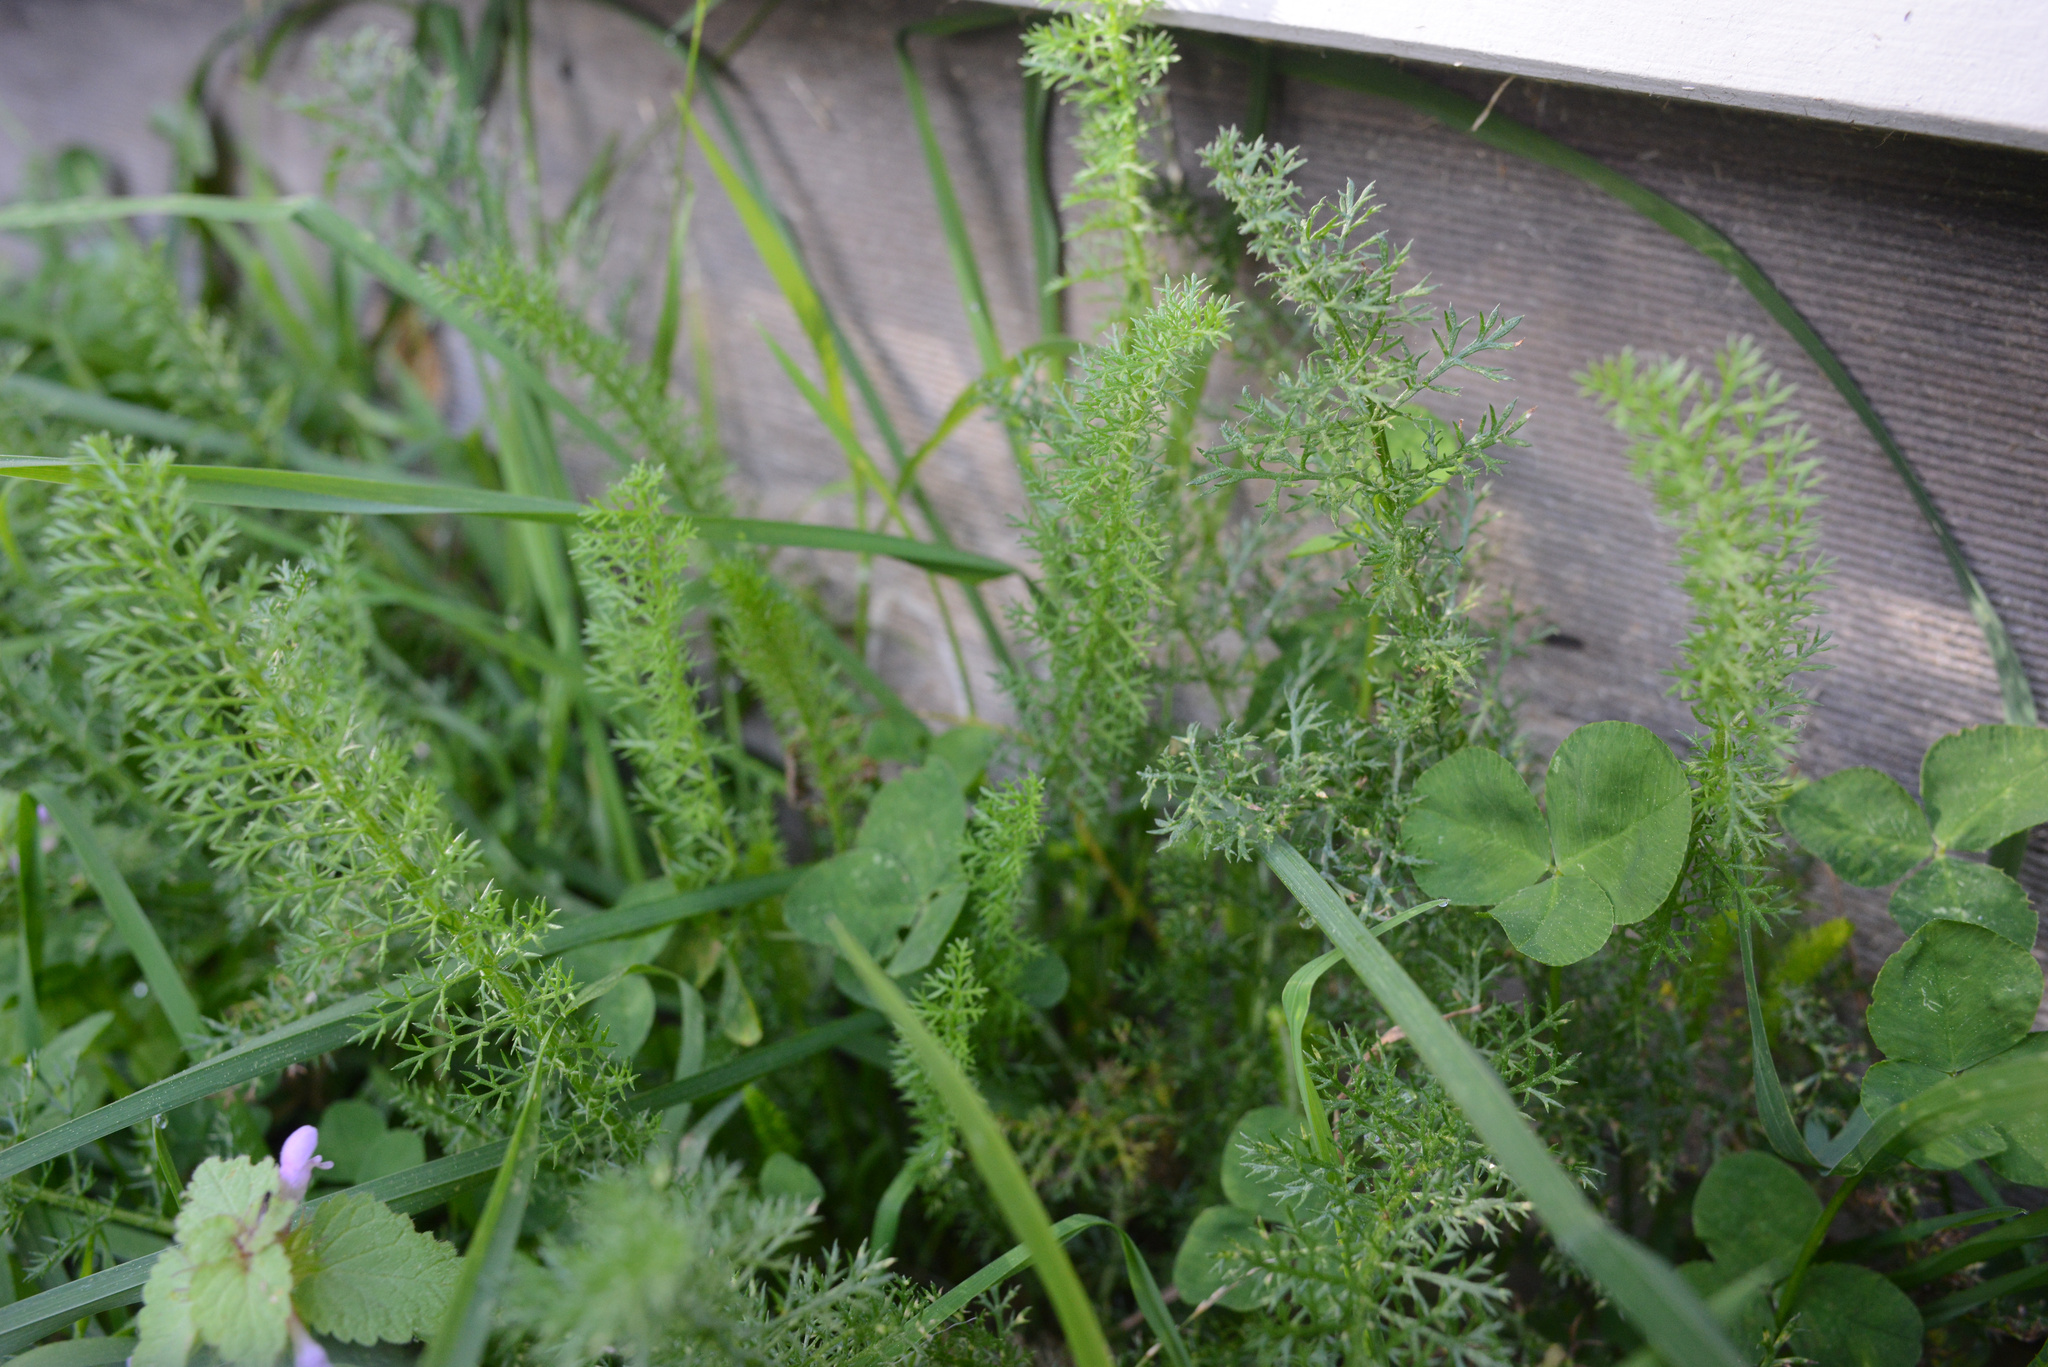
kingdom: Plantae
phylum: Tracheophyta
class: Magnoliopsida
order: Asterales
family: Asteraceae
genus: Achillea
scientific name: Achillea millefolium
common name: Yarrow
